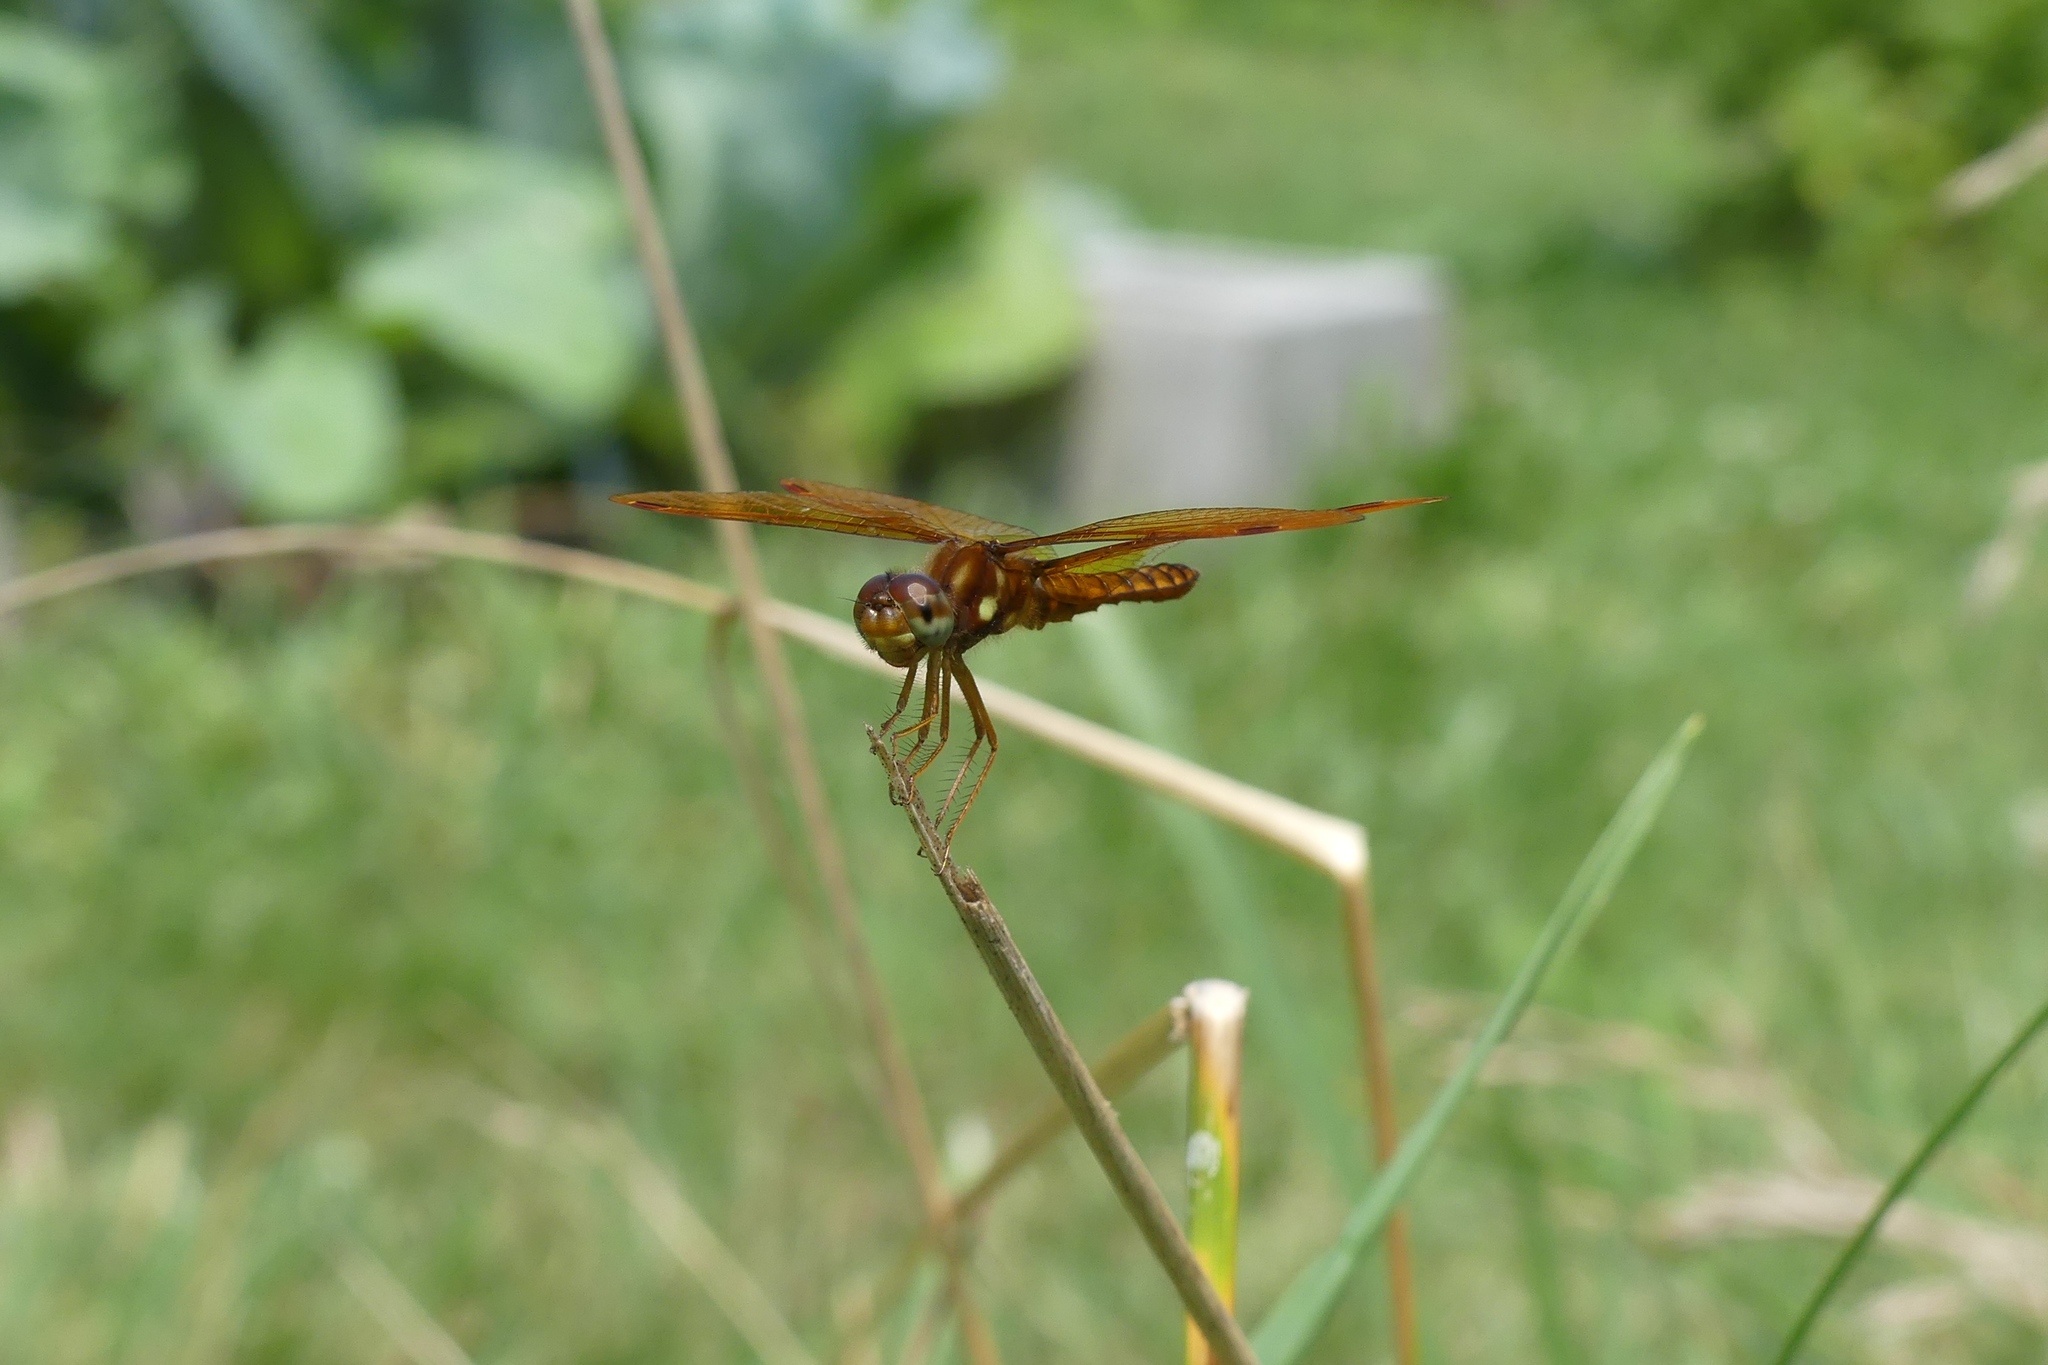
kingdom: Animalia
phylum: Arthropoda
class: Insecta
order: Odonata
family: Libellulidae
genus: Perithemis
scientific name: Perithemis tenera
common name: Eastern amberwing
